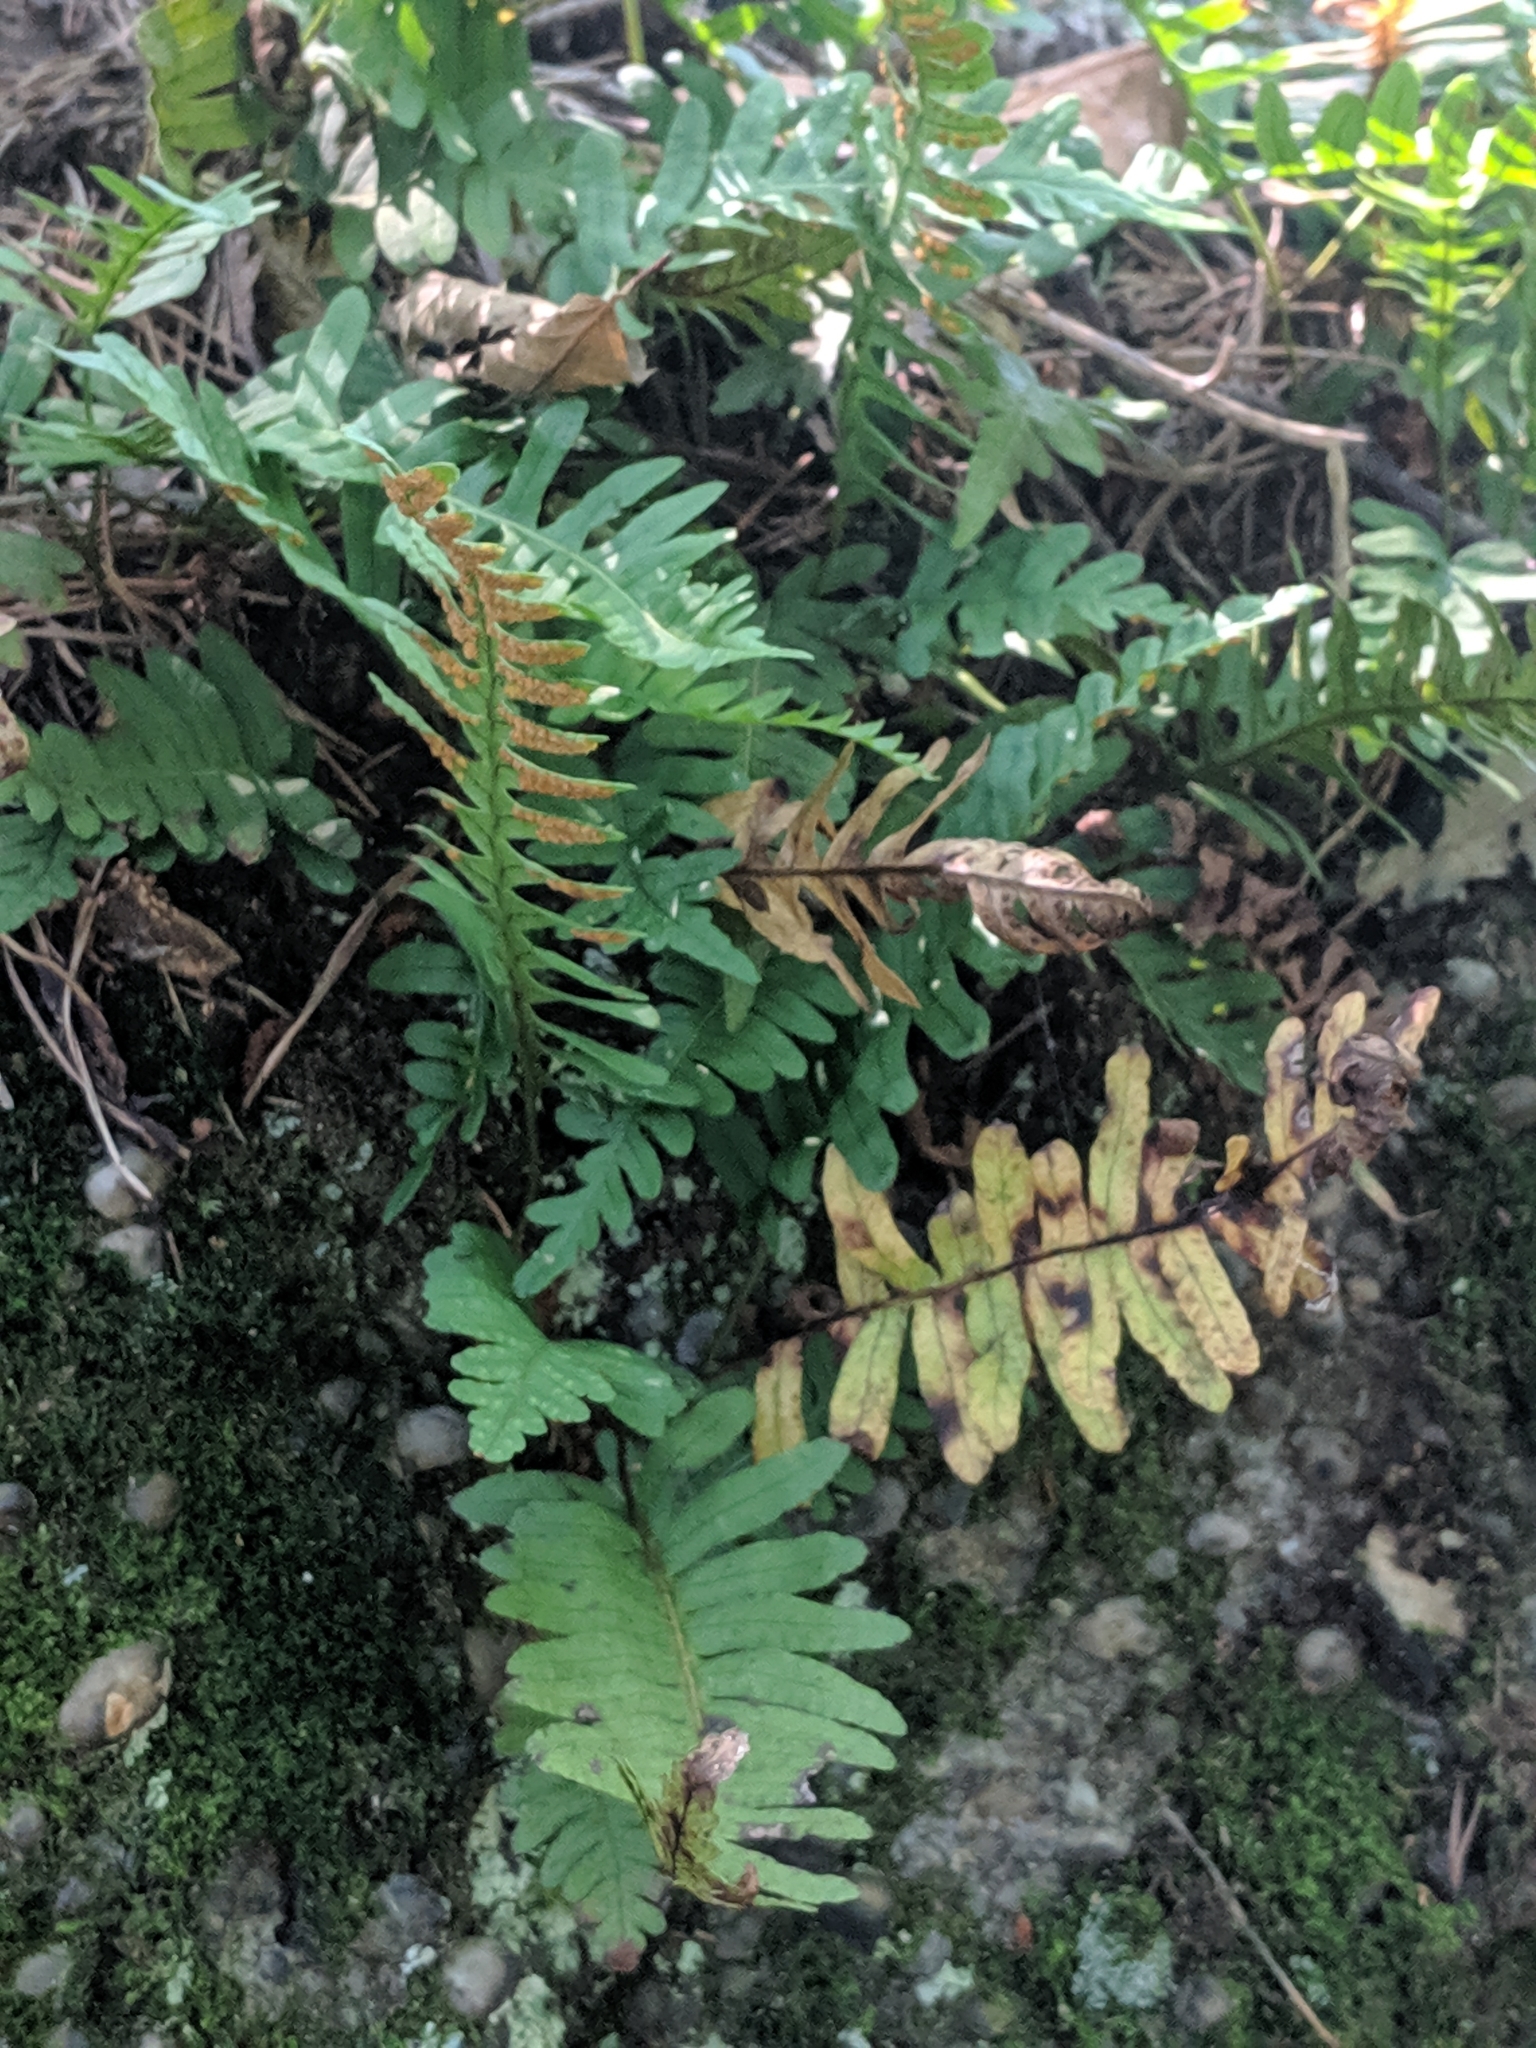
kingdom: Plantae
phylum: Tracheophyta
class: Polypodiopsida
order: Polypodiales
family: Polypodiaceae
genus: Polypodium
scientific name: Polypodium virginianum
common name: American wall fern
